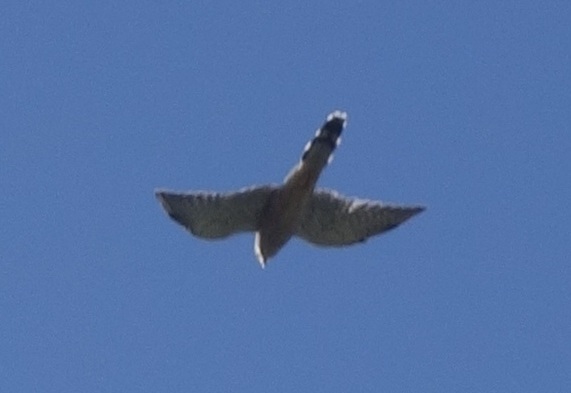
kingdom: Animalia
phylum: Chordata
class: Aves
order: Falconiformes
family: Falconidae
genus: Falco
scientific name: Falco tinnunculus
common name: Common kestrel
